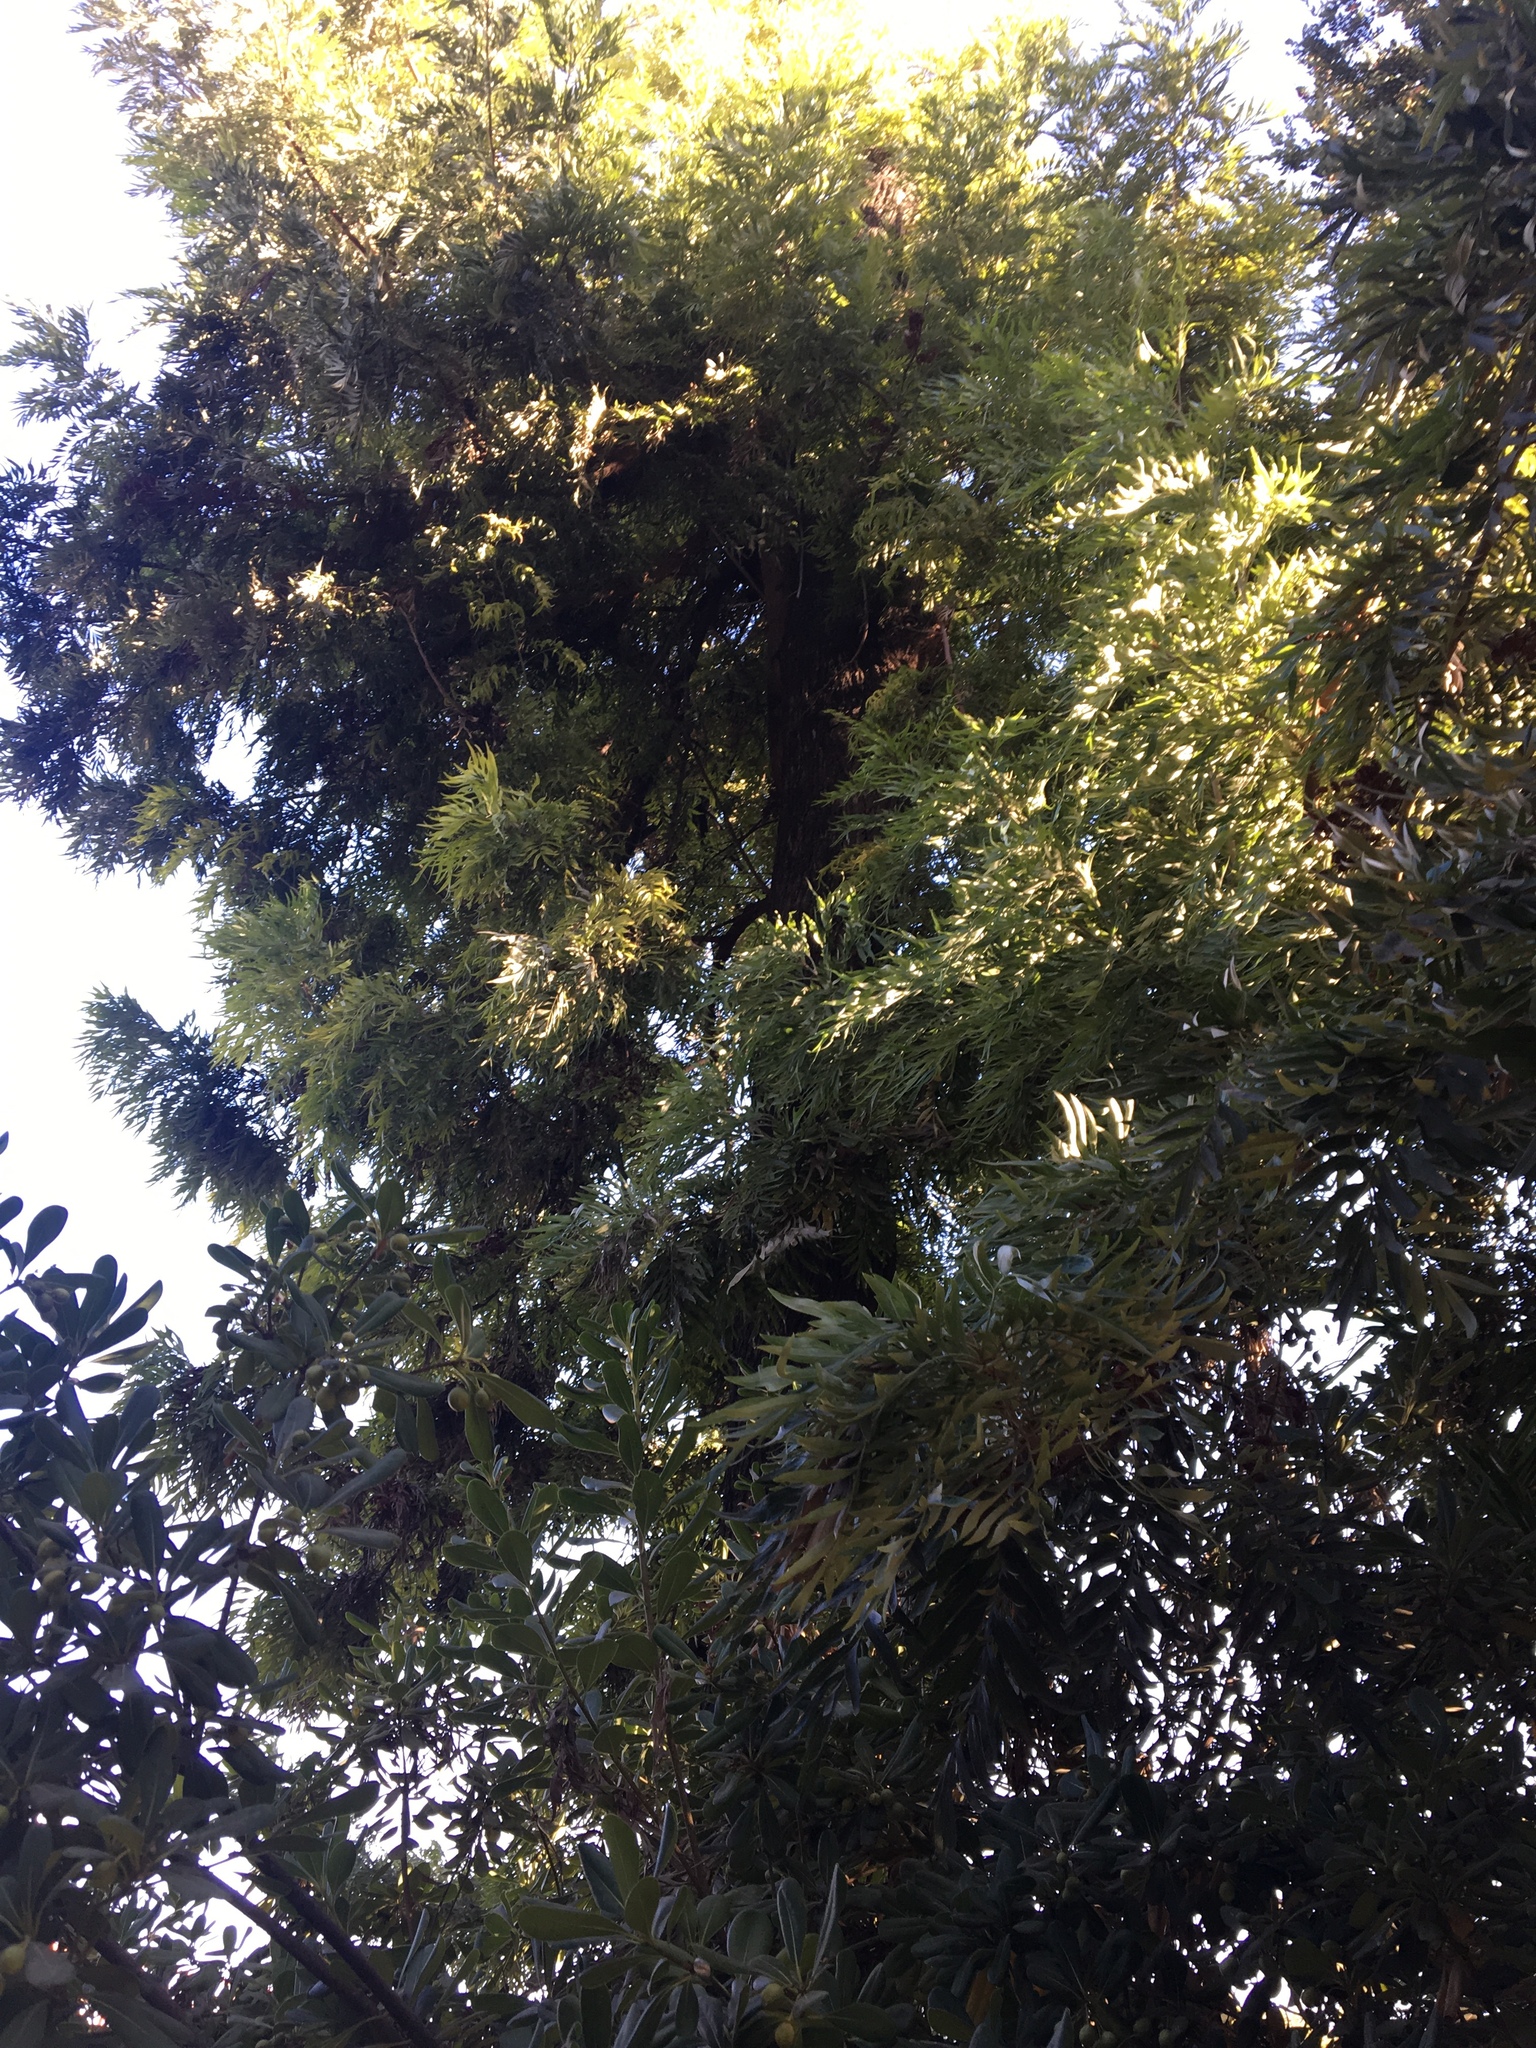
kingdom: Plantae
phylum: Tracheophyta
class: Magnoliopsida
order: Proteales
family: Proteaceae
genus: Grevillea
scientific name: Grevillea robusta
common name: Silkoak
